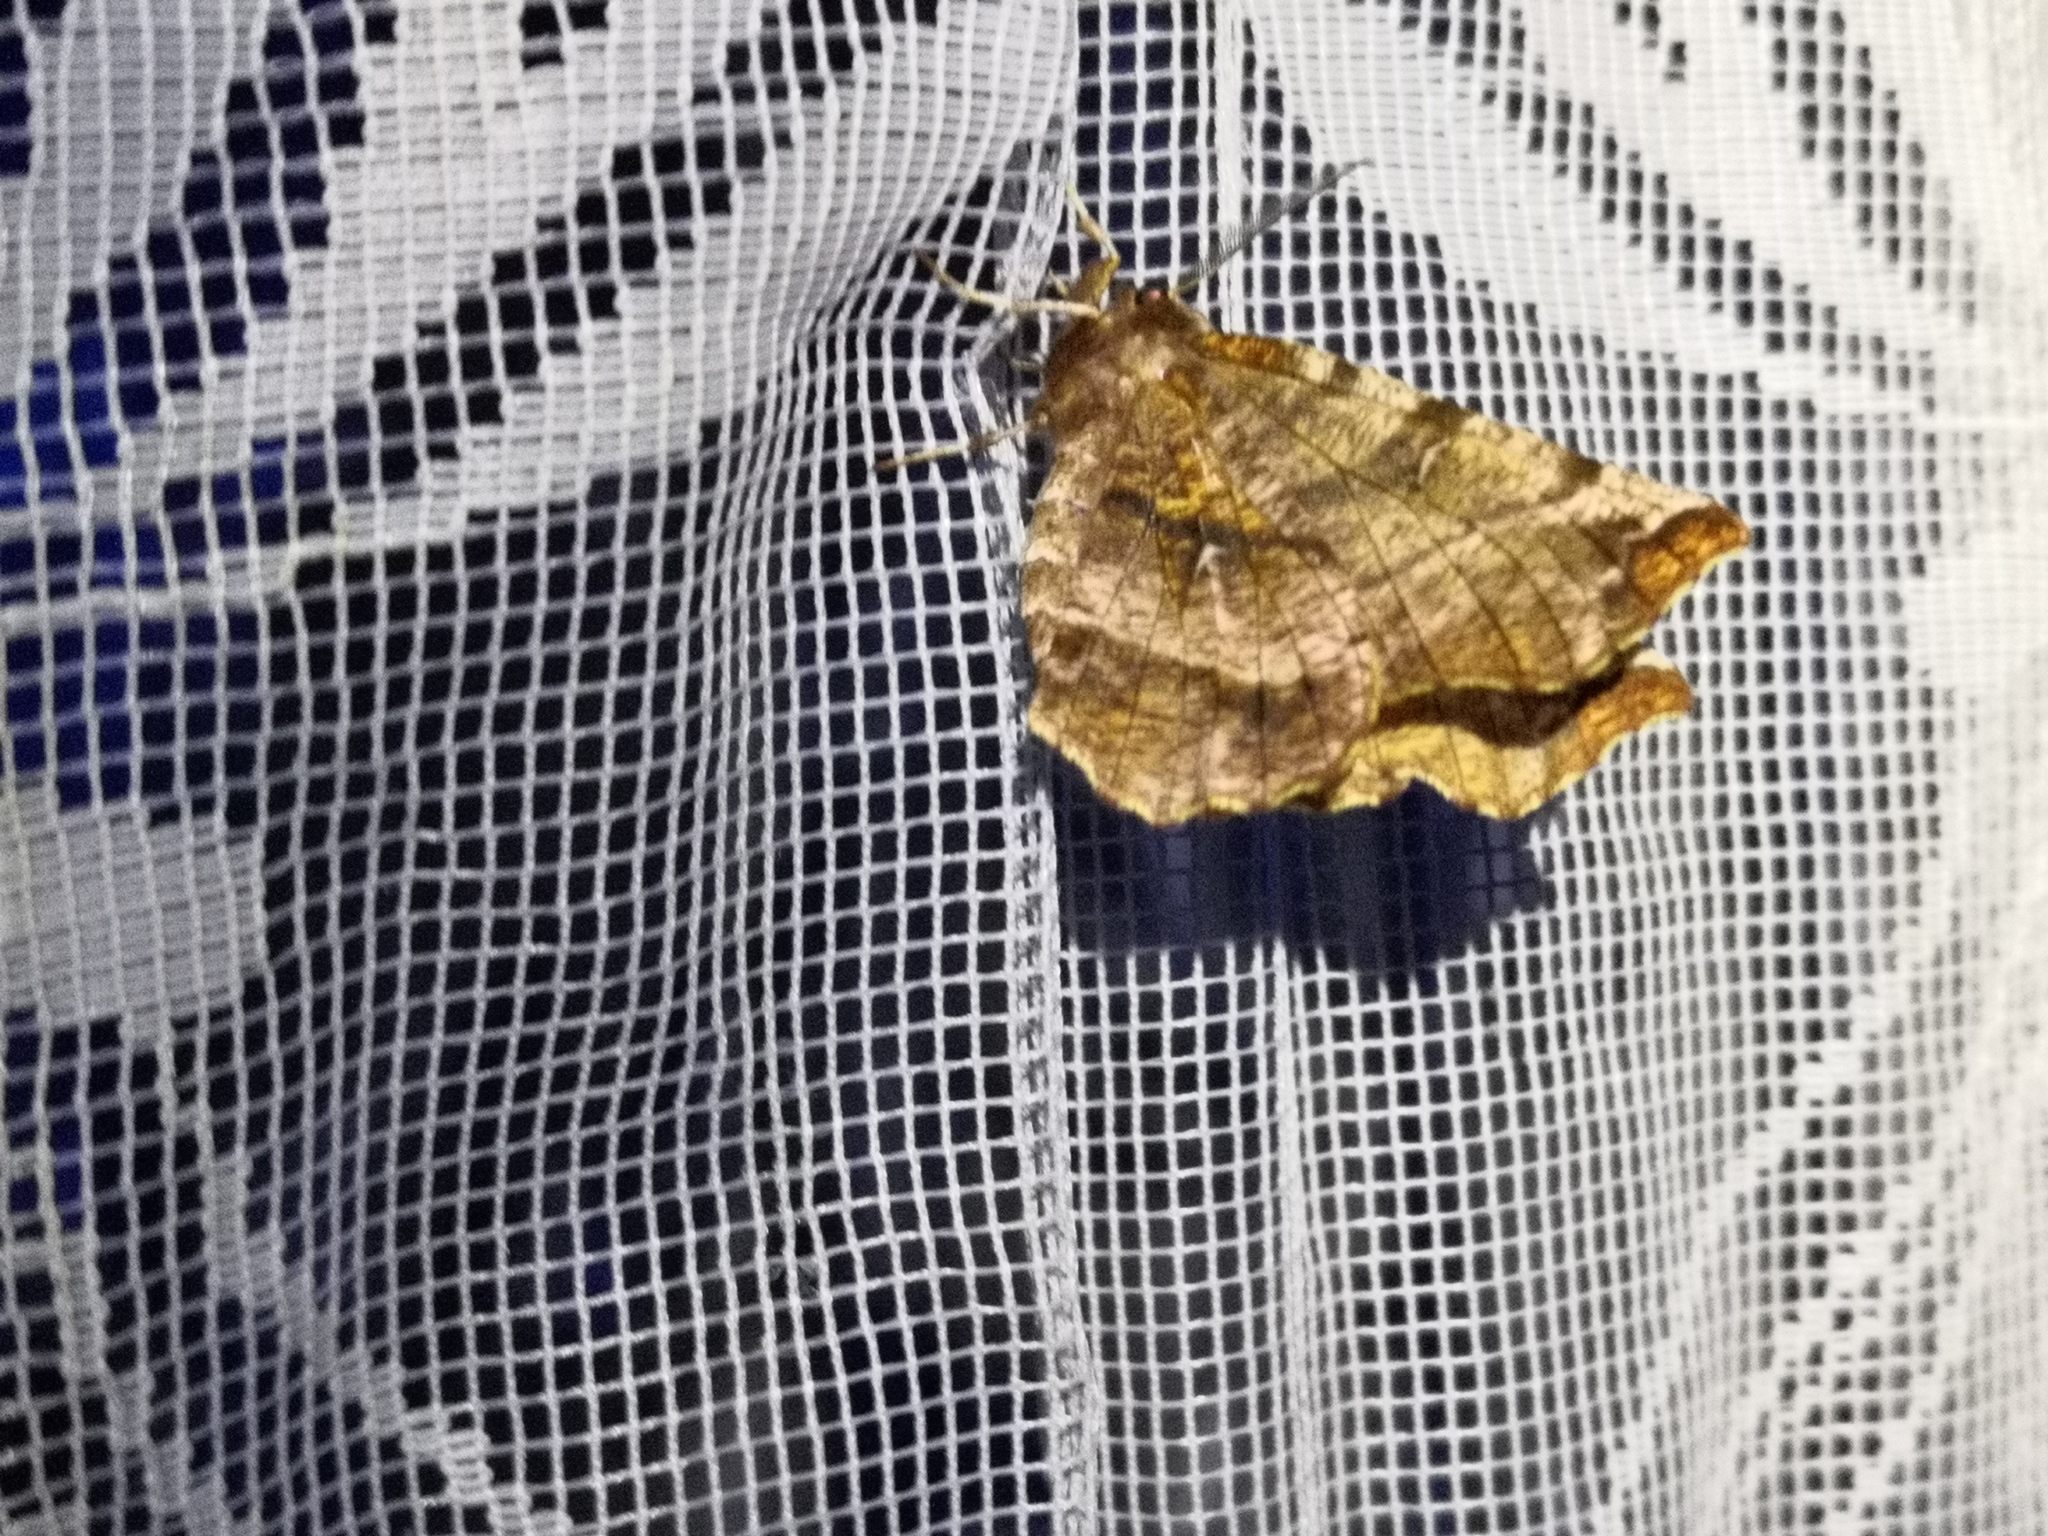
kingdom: Animalia
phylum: Arthropoda
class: Insecta
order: Lepidoptera
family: Geometridae
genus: Selenia
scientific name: Selenia dentaria
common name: Early thorn
